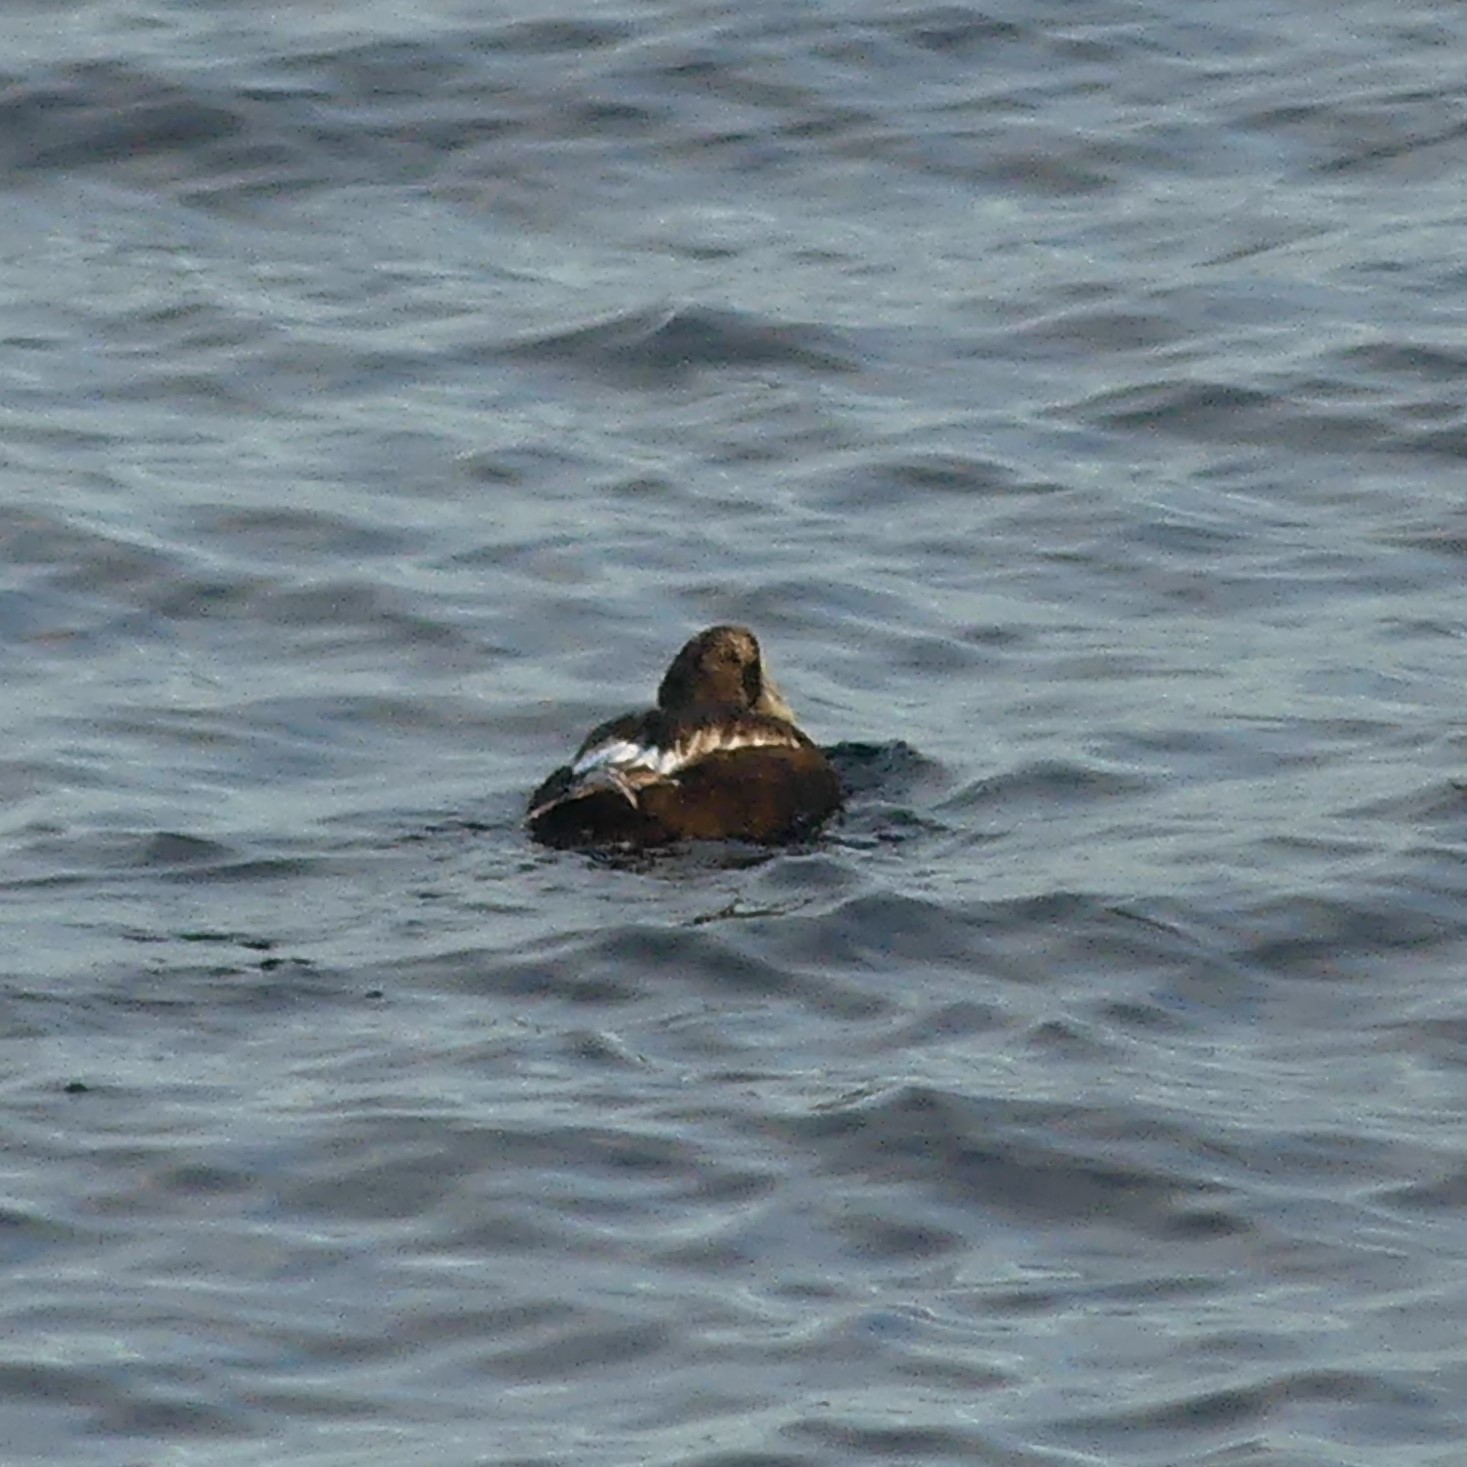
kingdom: Animalia
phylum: Chordata
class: Aves
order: Anseriformes
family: Anatidae
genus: Somateria
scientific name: Somateria mollissima
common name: Common eider
